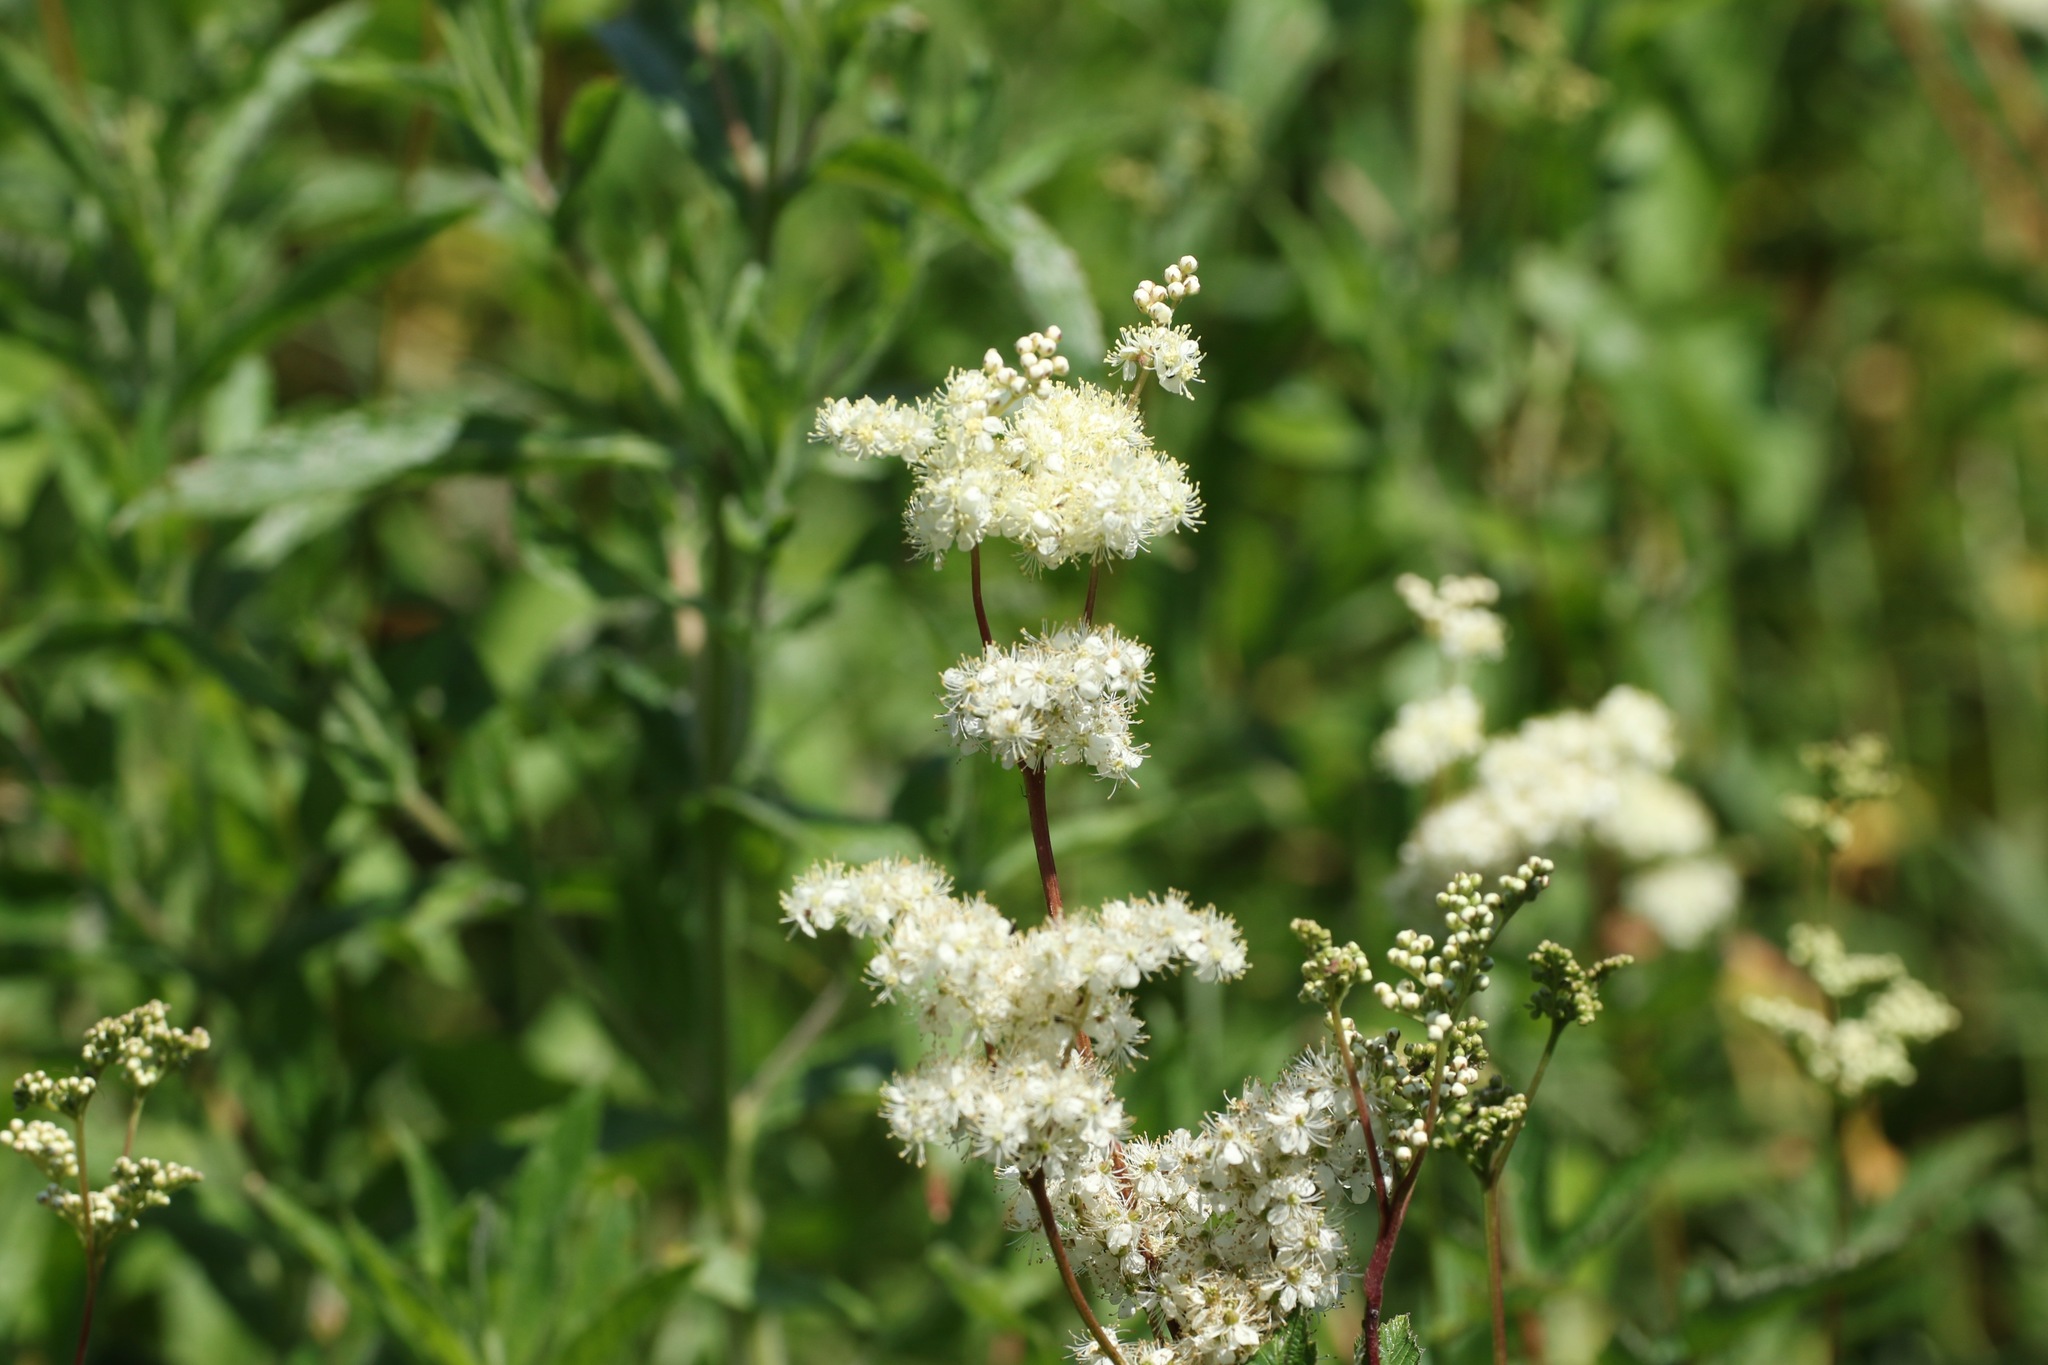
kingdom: Plantae
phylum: Tracheophyta
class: Magnoliopsida
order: Rosales
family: Rosaceae
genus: Filipendula
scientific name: Filipendula ulmaria
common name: Meadowsweet
